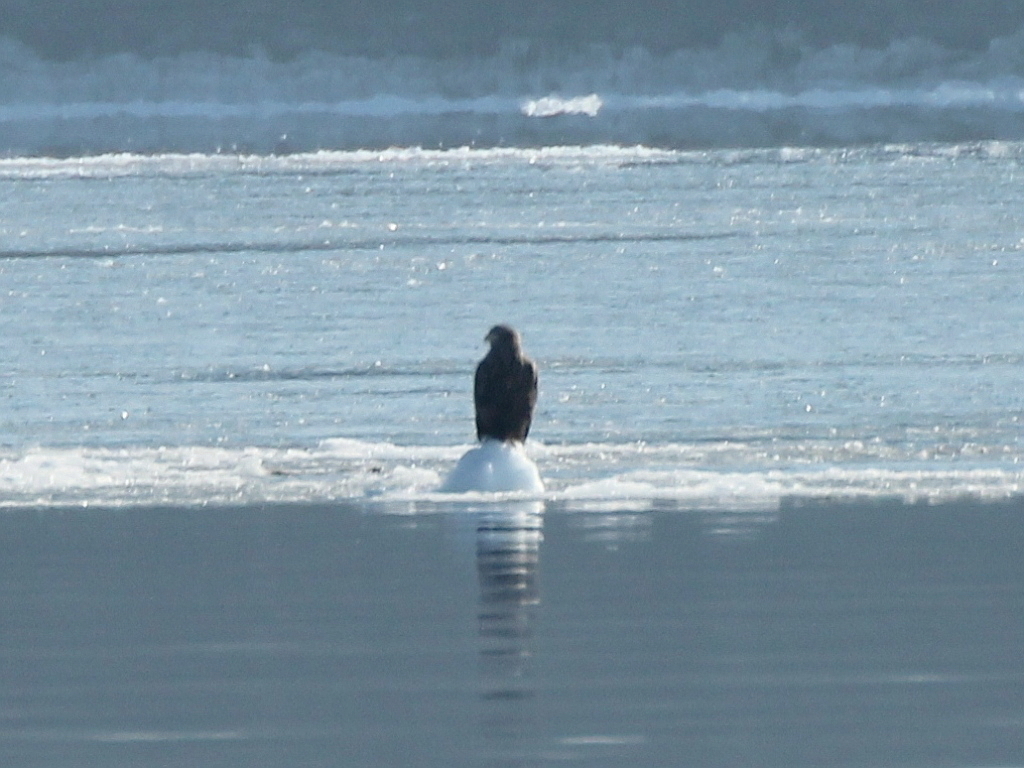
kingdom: Animalia
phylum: Chordata
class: Aves
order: Accipitriformes
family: Accipitridae
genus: Haliaeetus
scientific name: Haliaeetus albicilla
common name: White-tailed eagle
